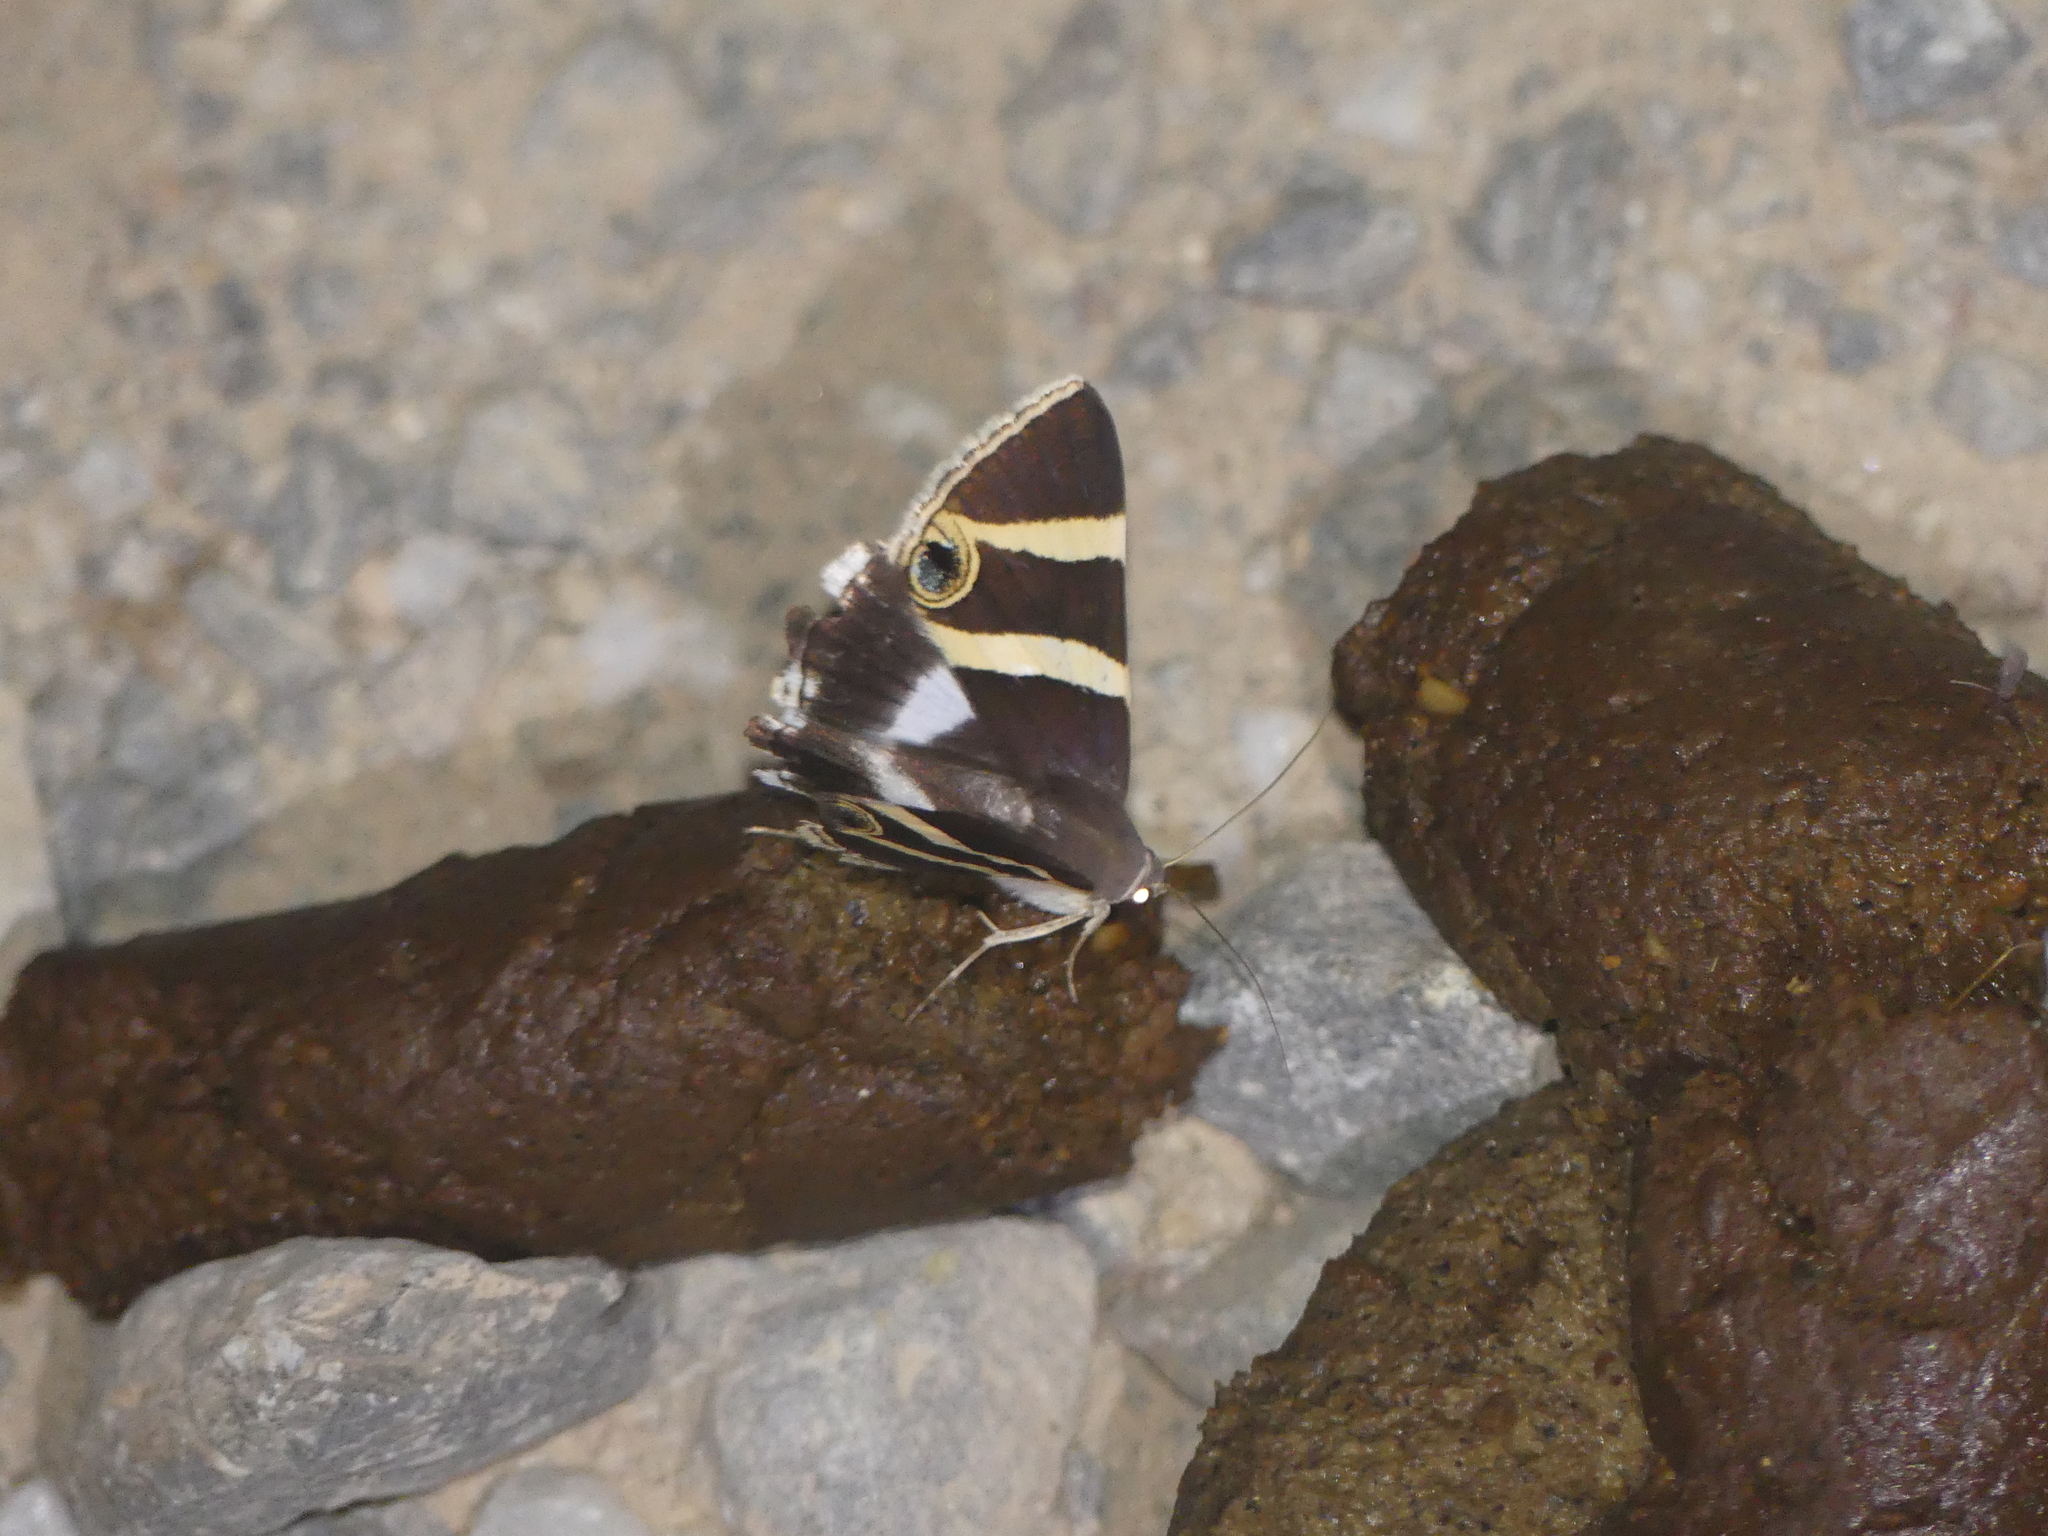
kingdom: Animalia
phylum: Arthropoda
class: Insecta
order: Lepidoptera
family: Erebidae
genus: Grammodes
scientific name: Grammodes ocellata
